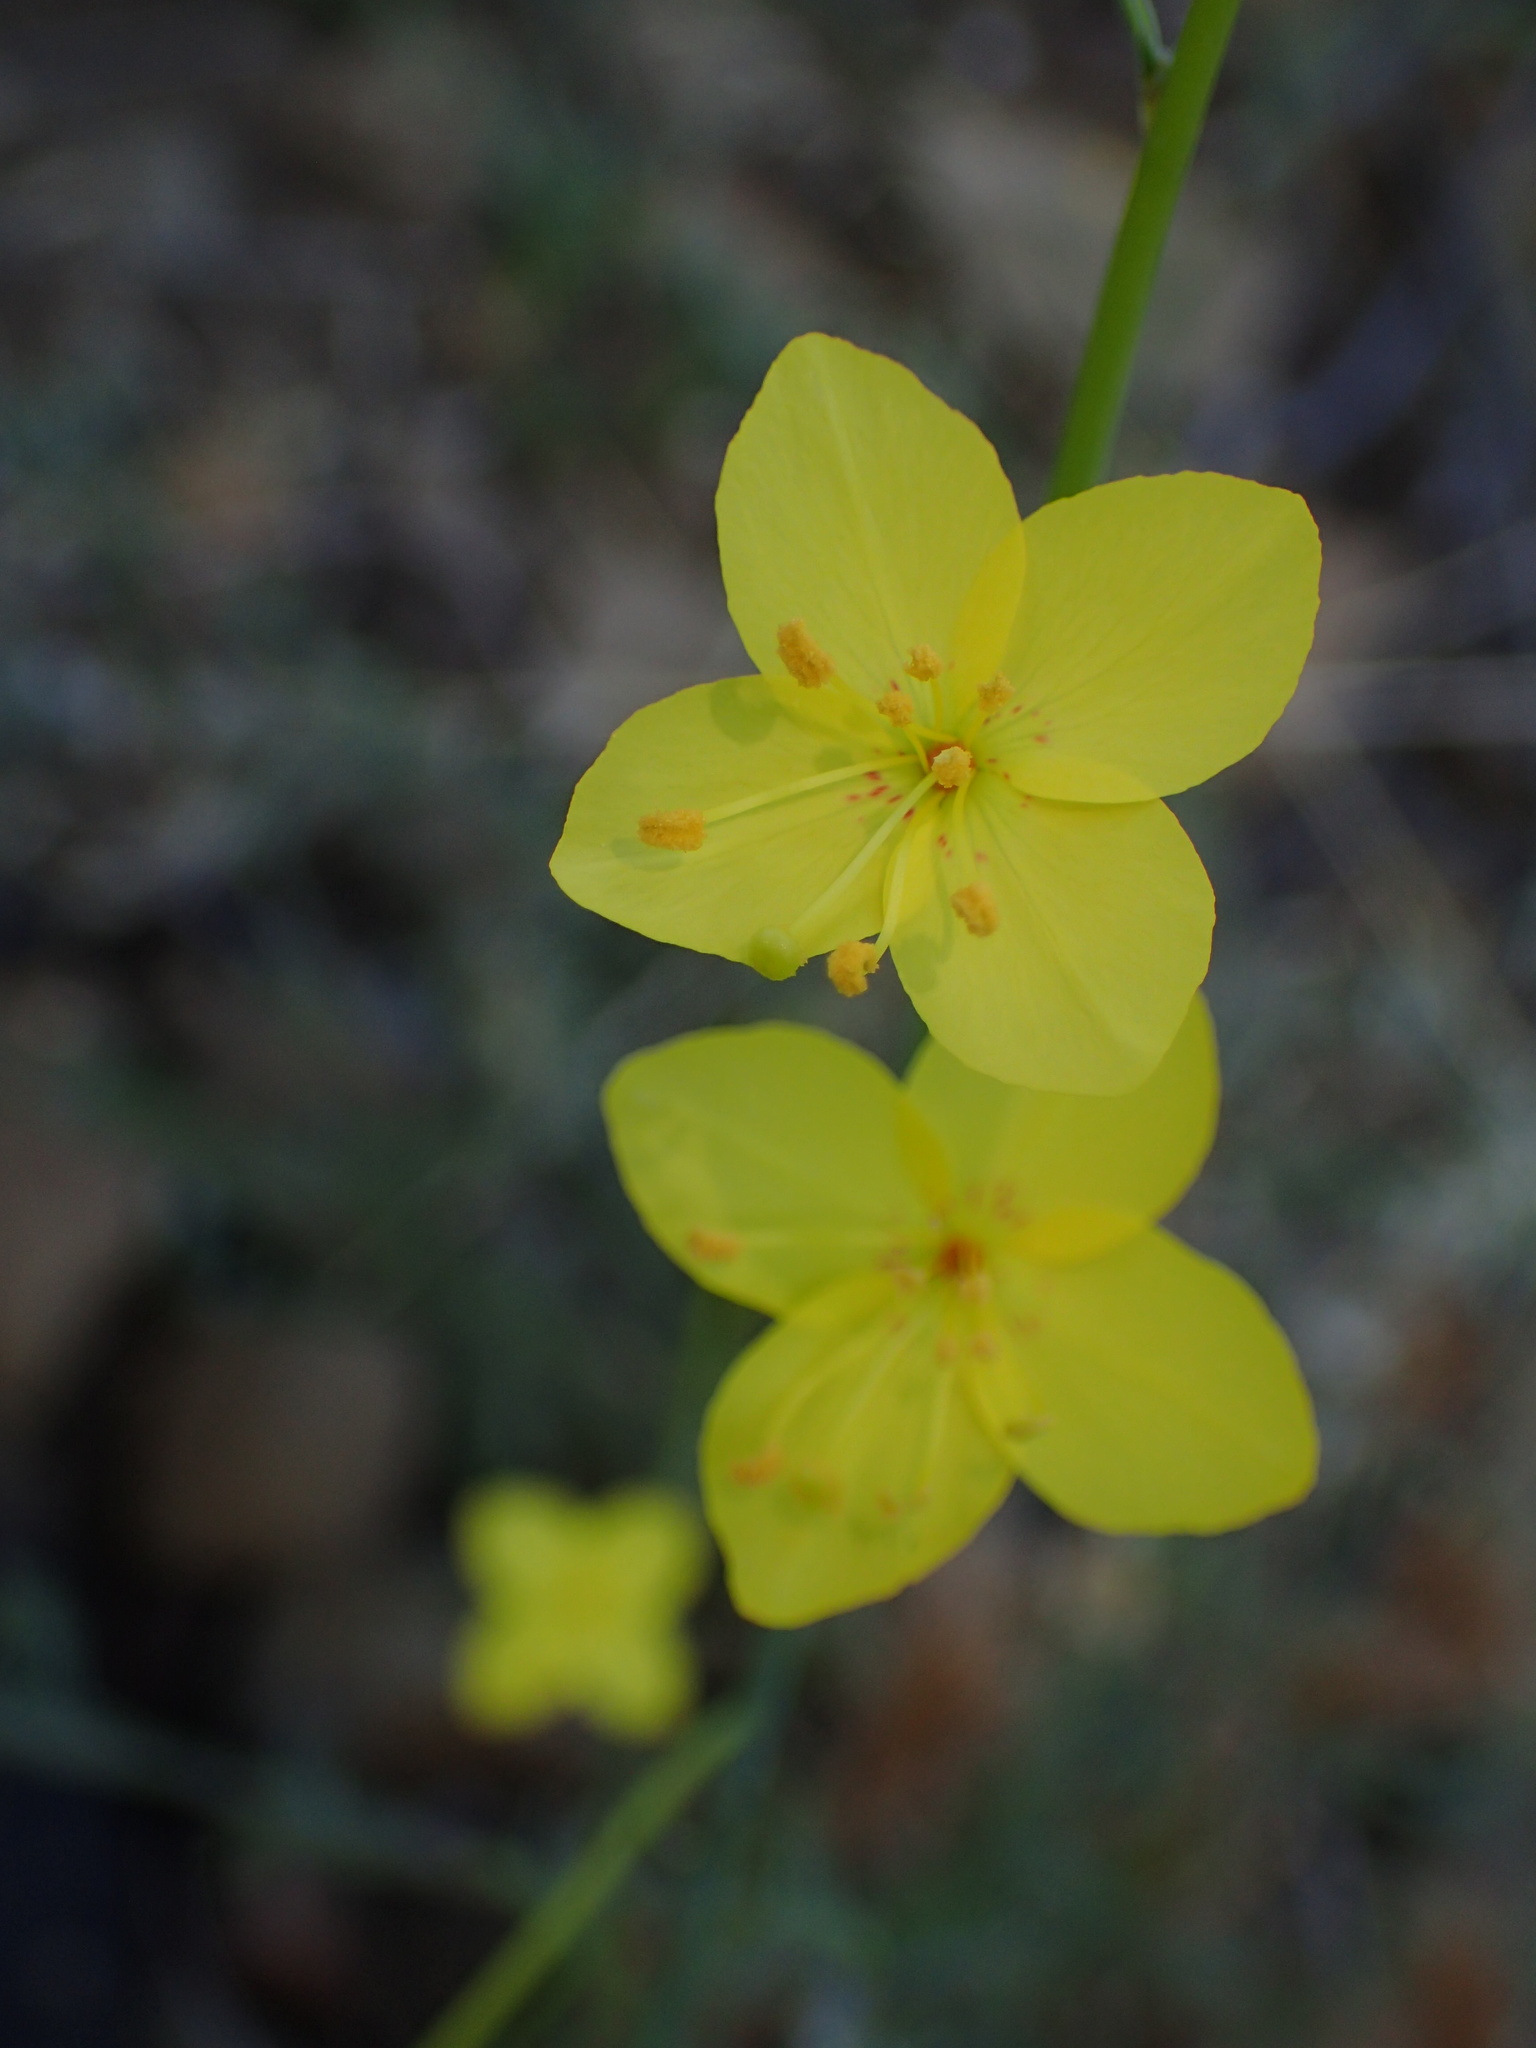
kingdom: Plantae
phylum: Tracheophyta
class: Magnoliopsida
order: Myrtales
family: Onagraceae
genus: Eulobus
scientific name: Eulobus californicus
